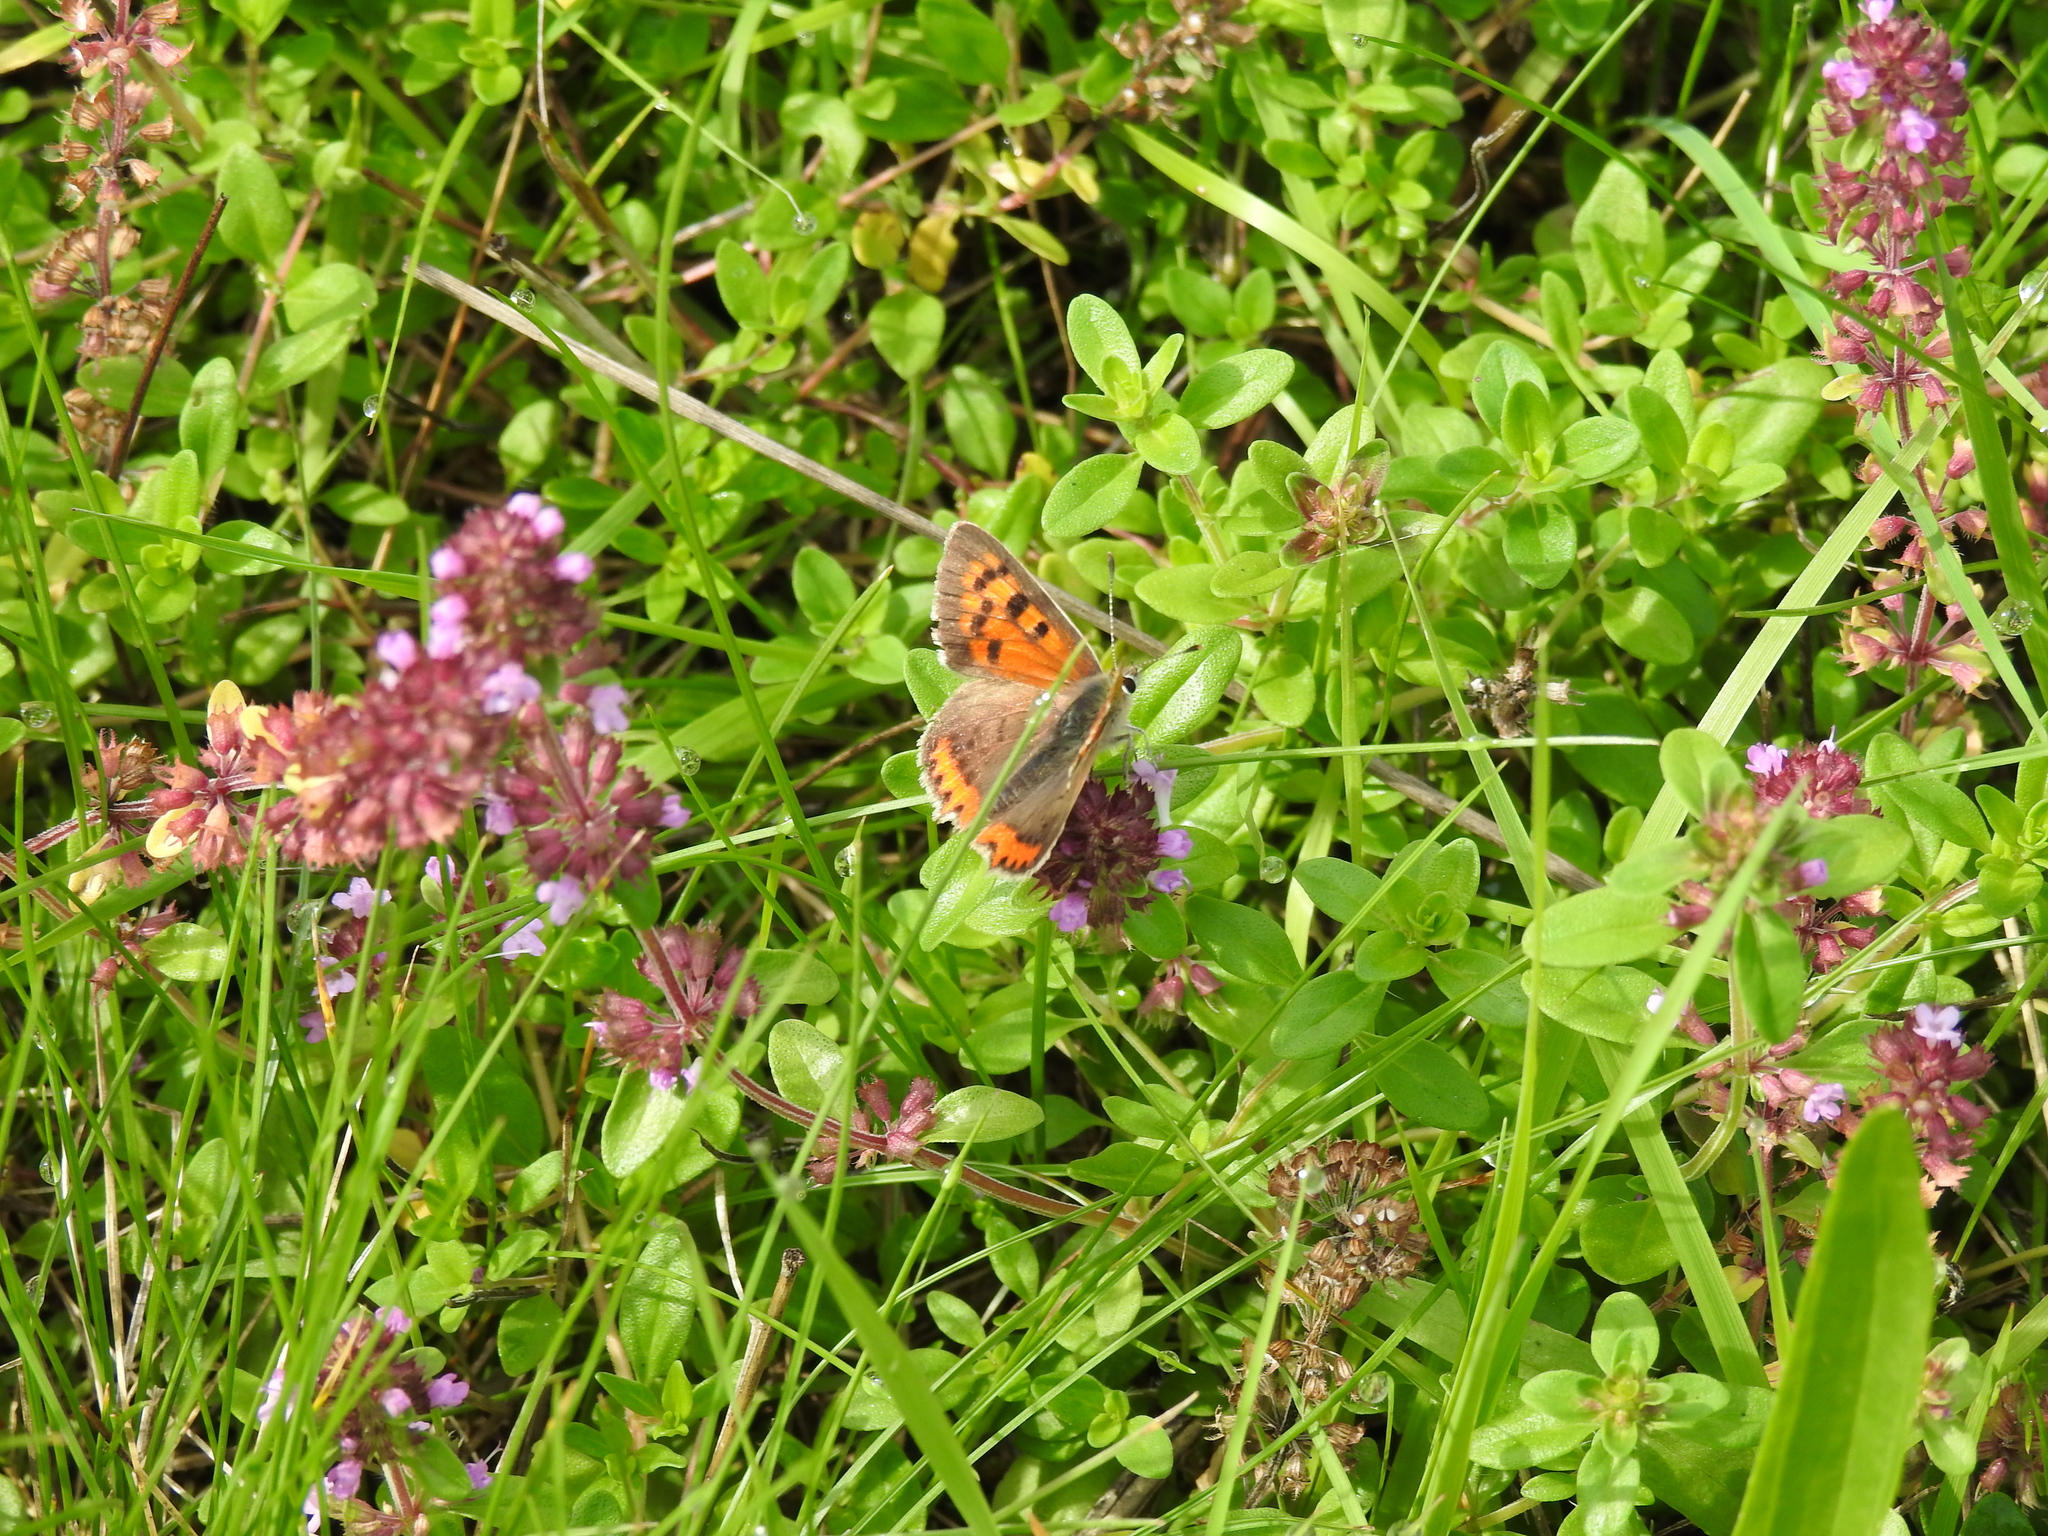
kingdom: Animalia
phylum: Arthropoda
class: Insecta
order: Lepidoptera
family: Lycaenidae
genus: Lycaena
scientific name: Lycaena phlaeas
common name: Small copper
